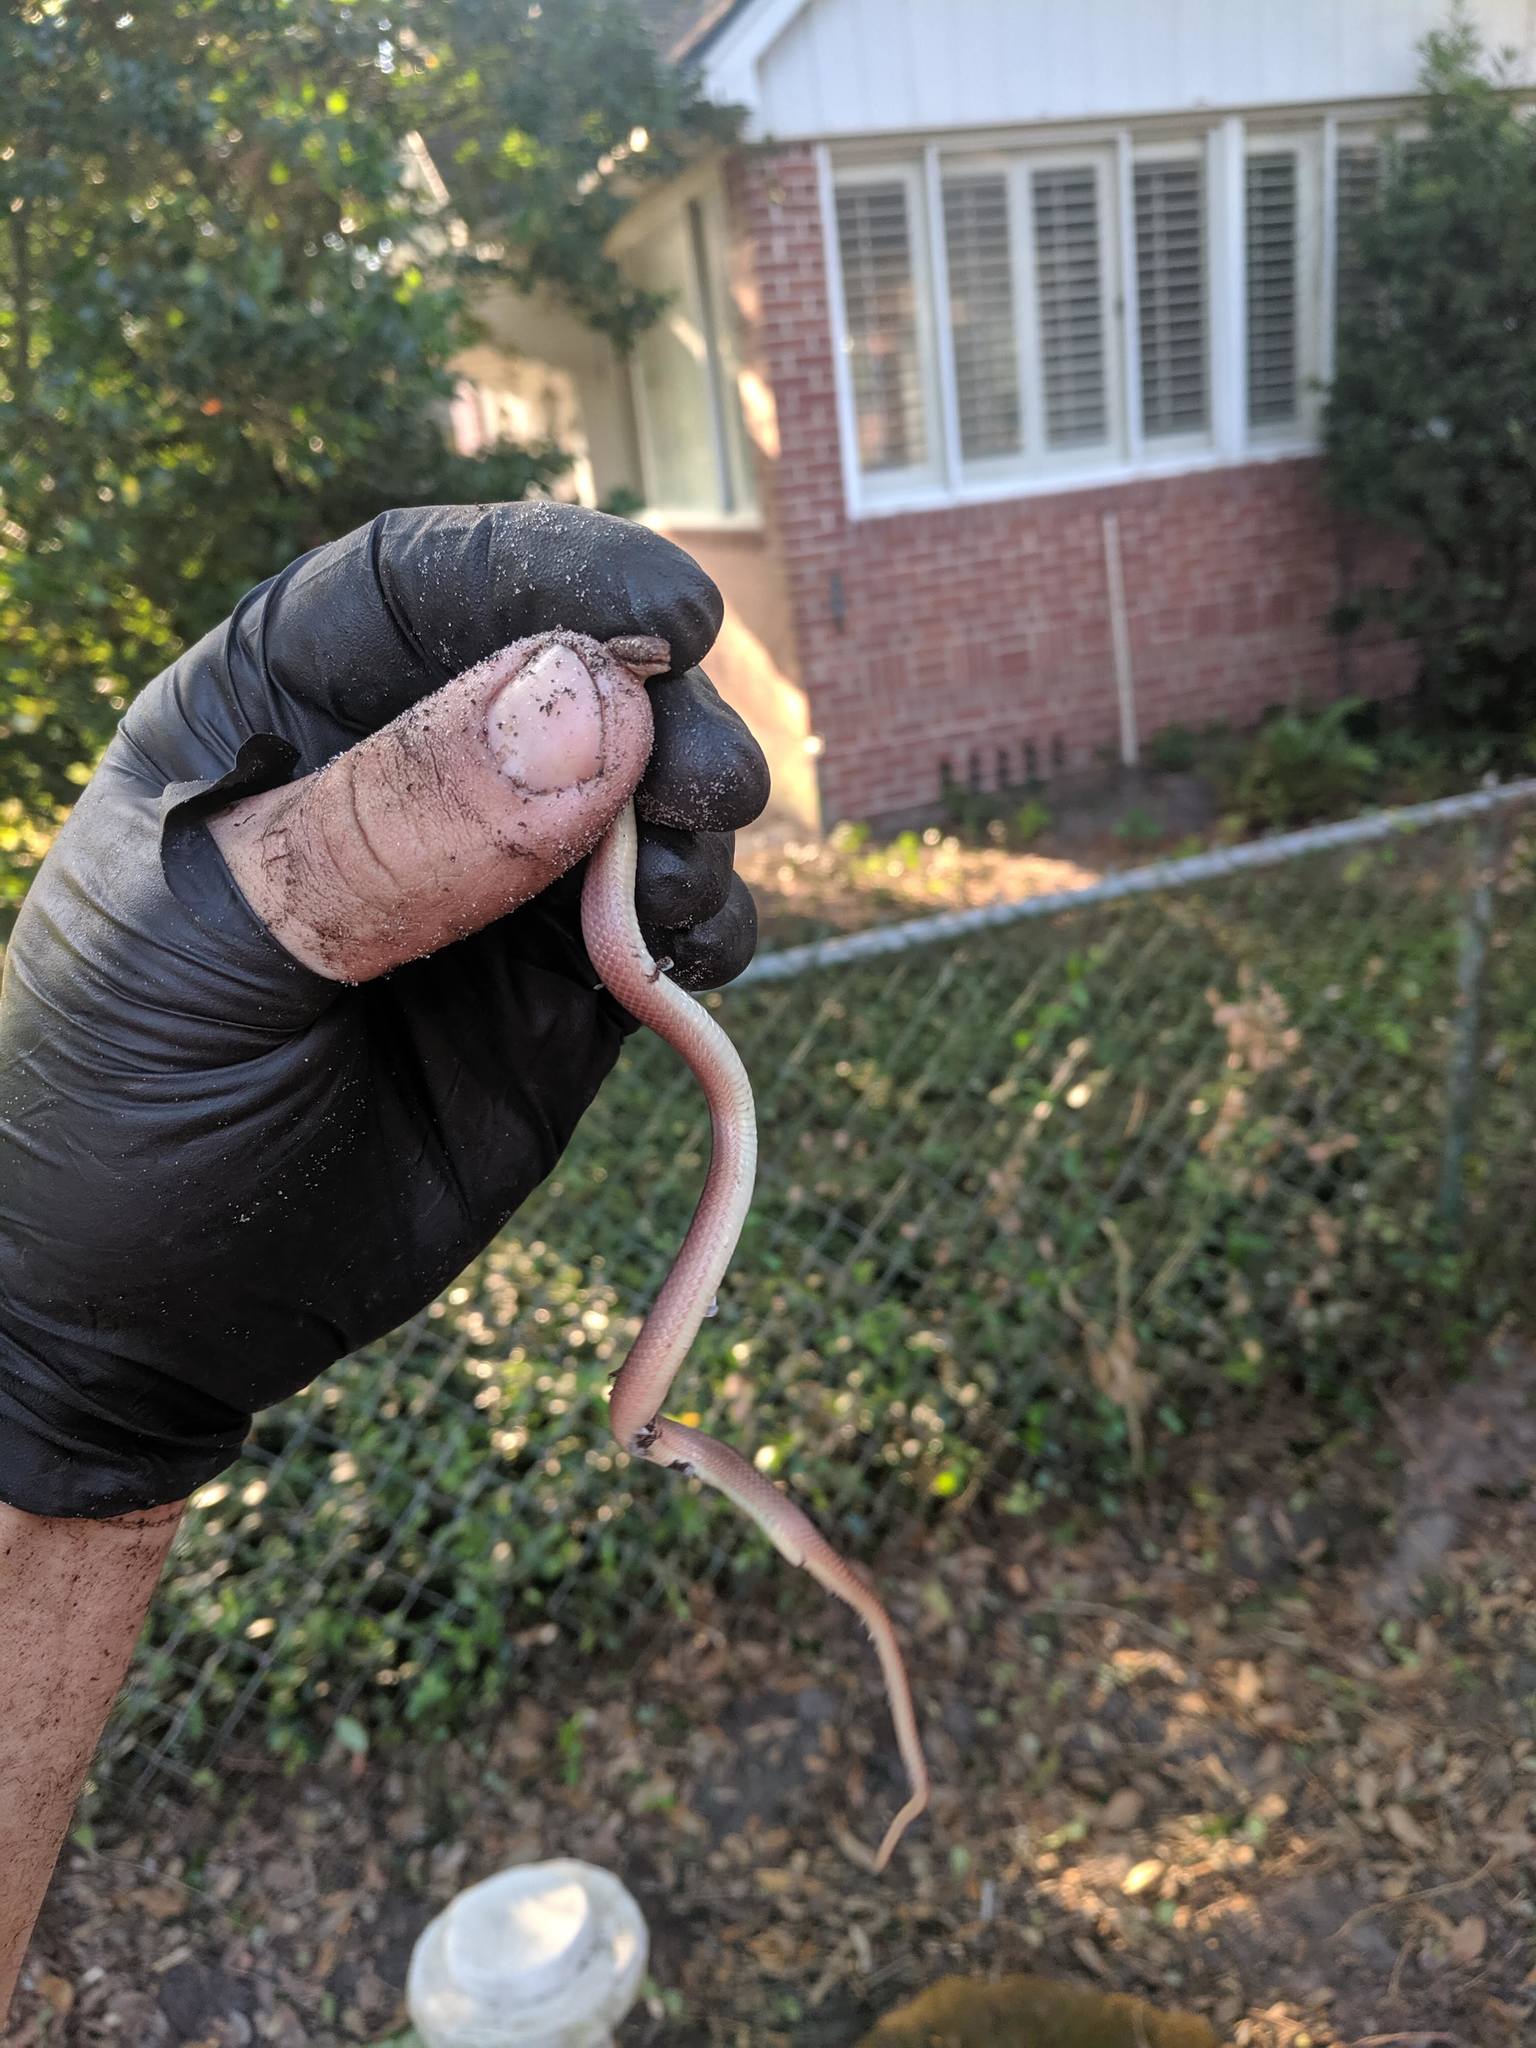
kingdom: Animalia
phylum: Chordata
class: Squamata
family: Colubridae
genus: Rhadinaea
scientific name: Rhadinaea flavilata
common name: Pine woods littersnake
